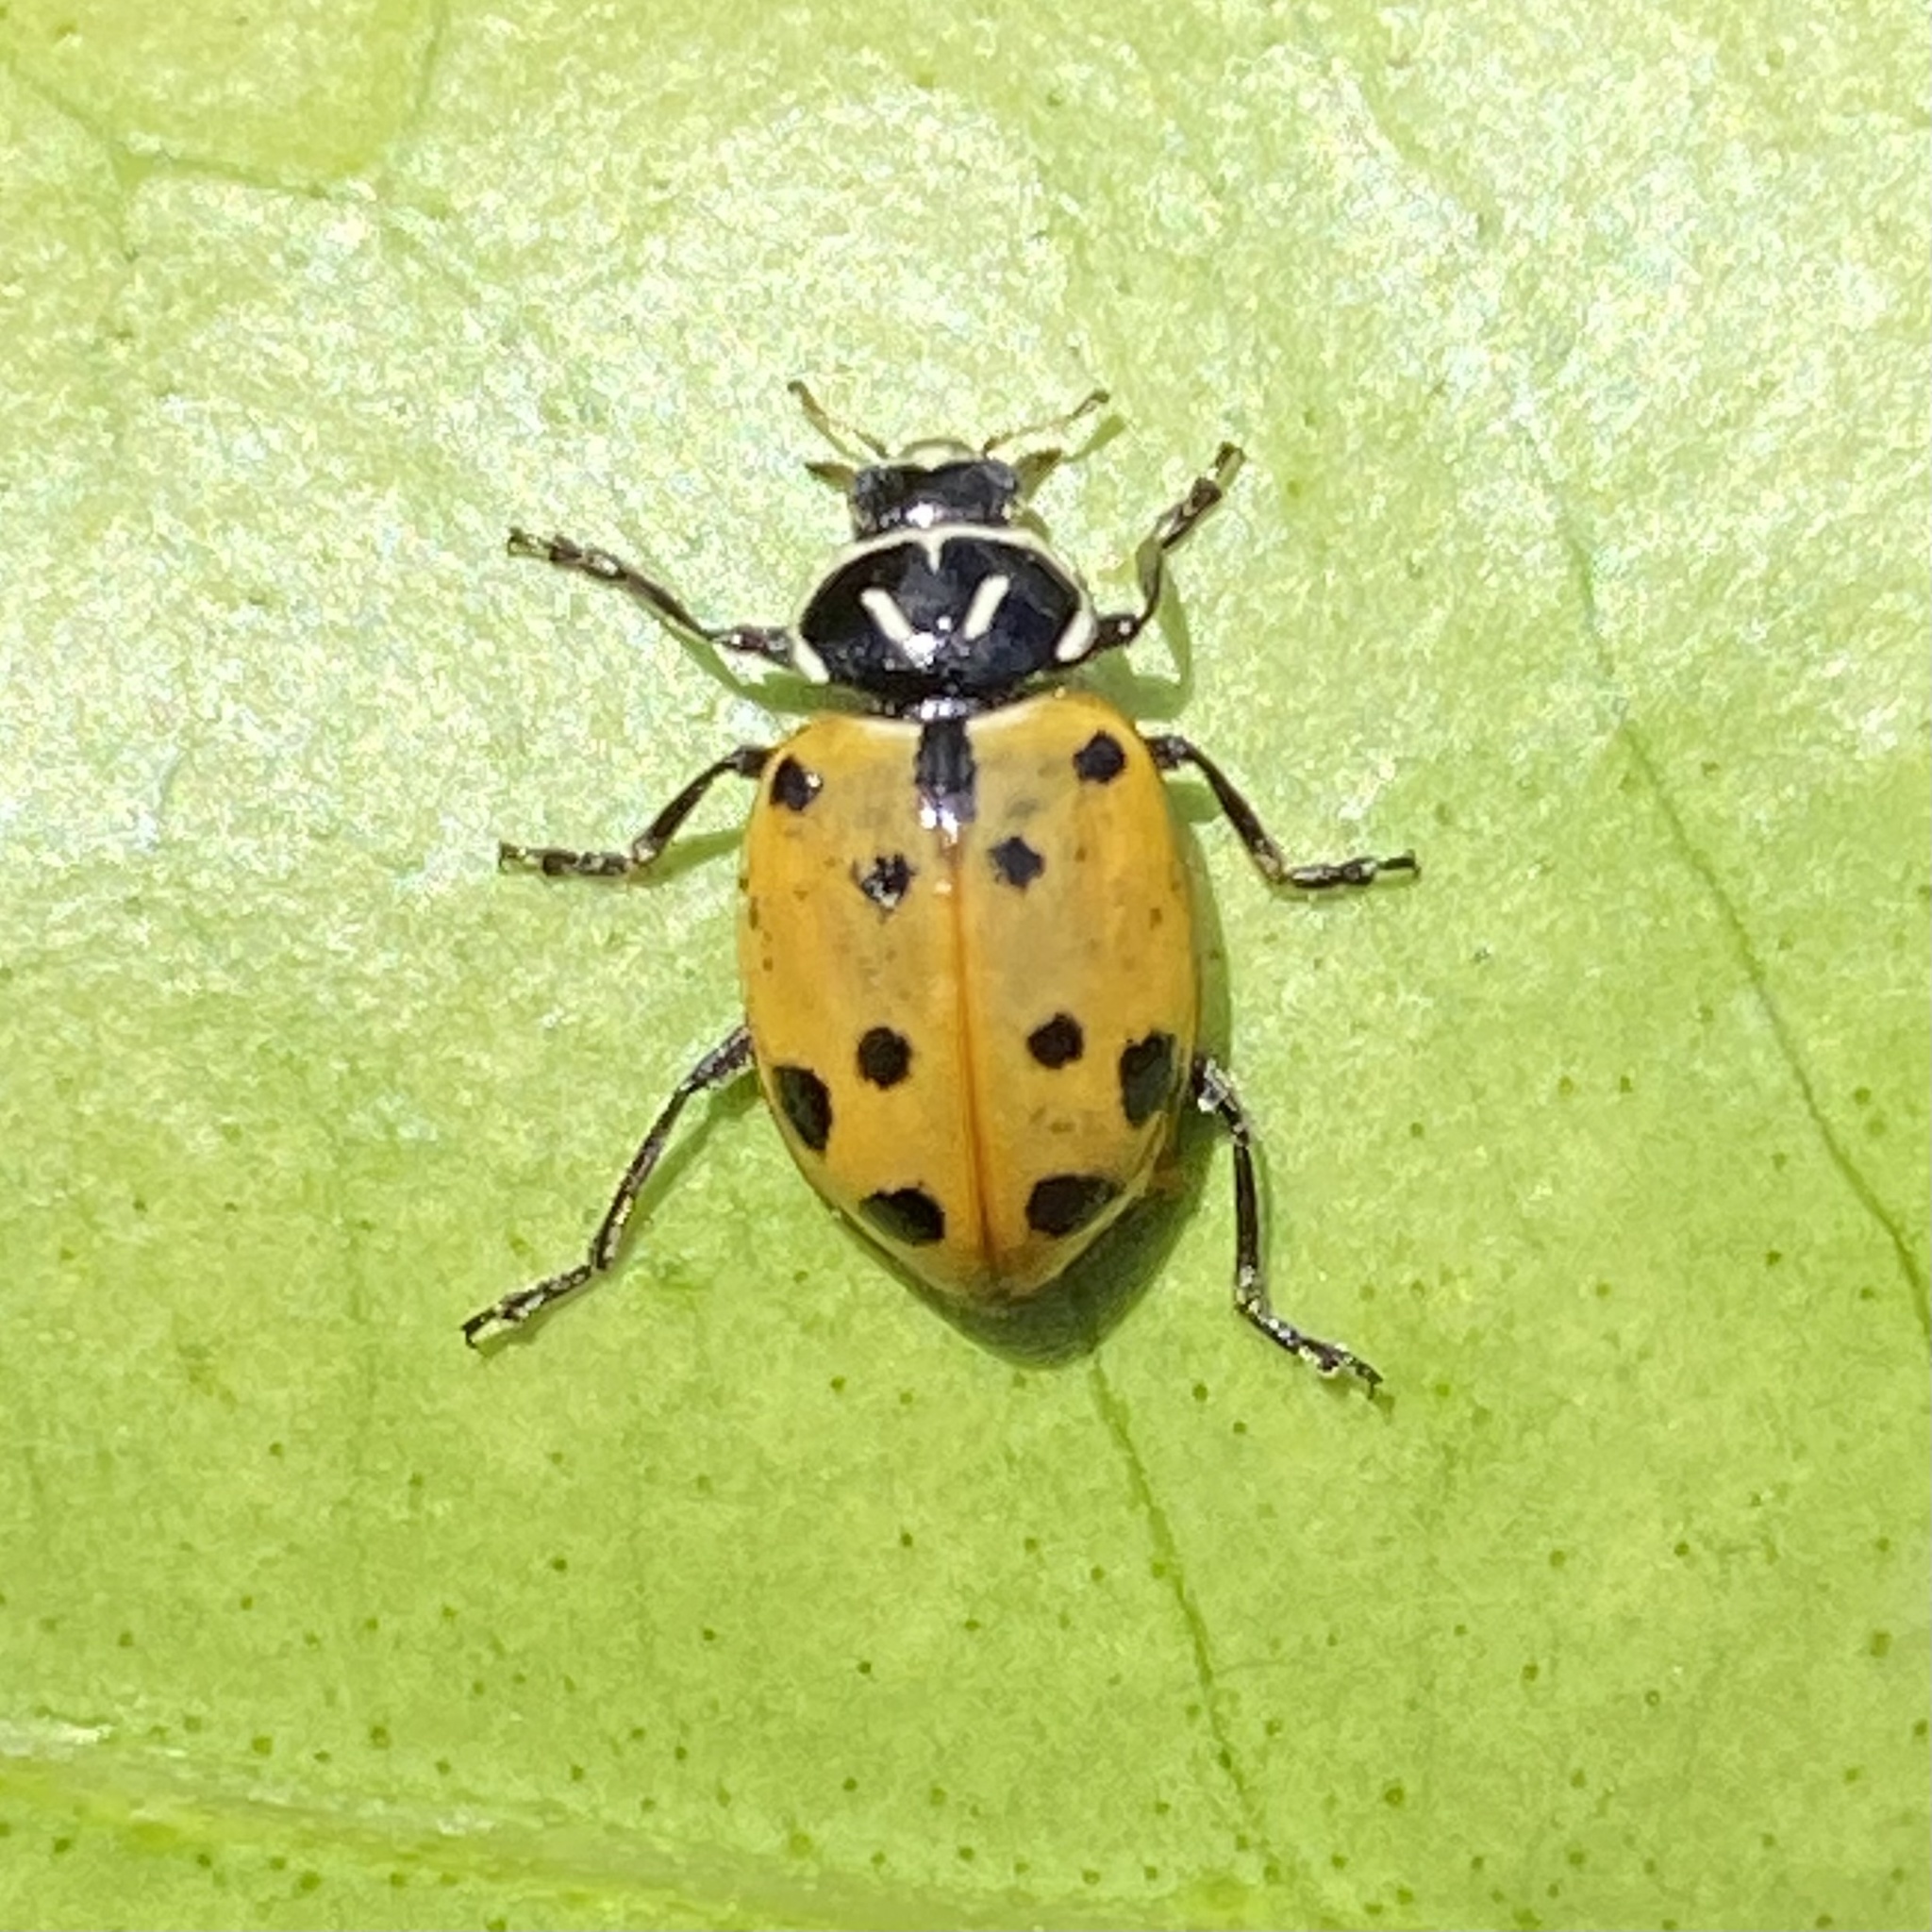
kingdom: Animalia
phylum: Arthropoda
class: Insecta
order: Coleoptera
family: Coccinellidae
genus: Hippodamia
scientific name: Hippodamia convergens
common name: Convergent lady beetle
